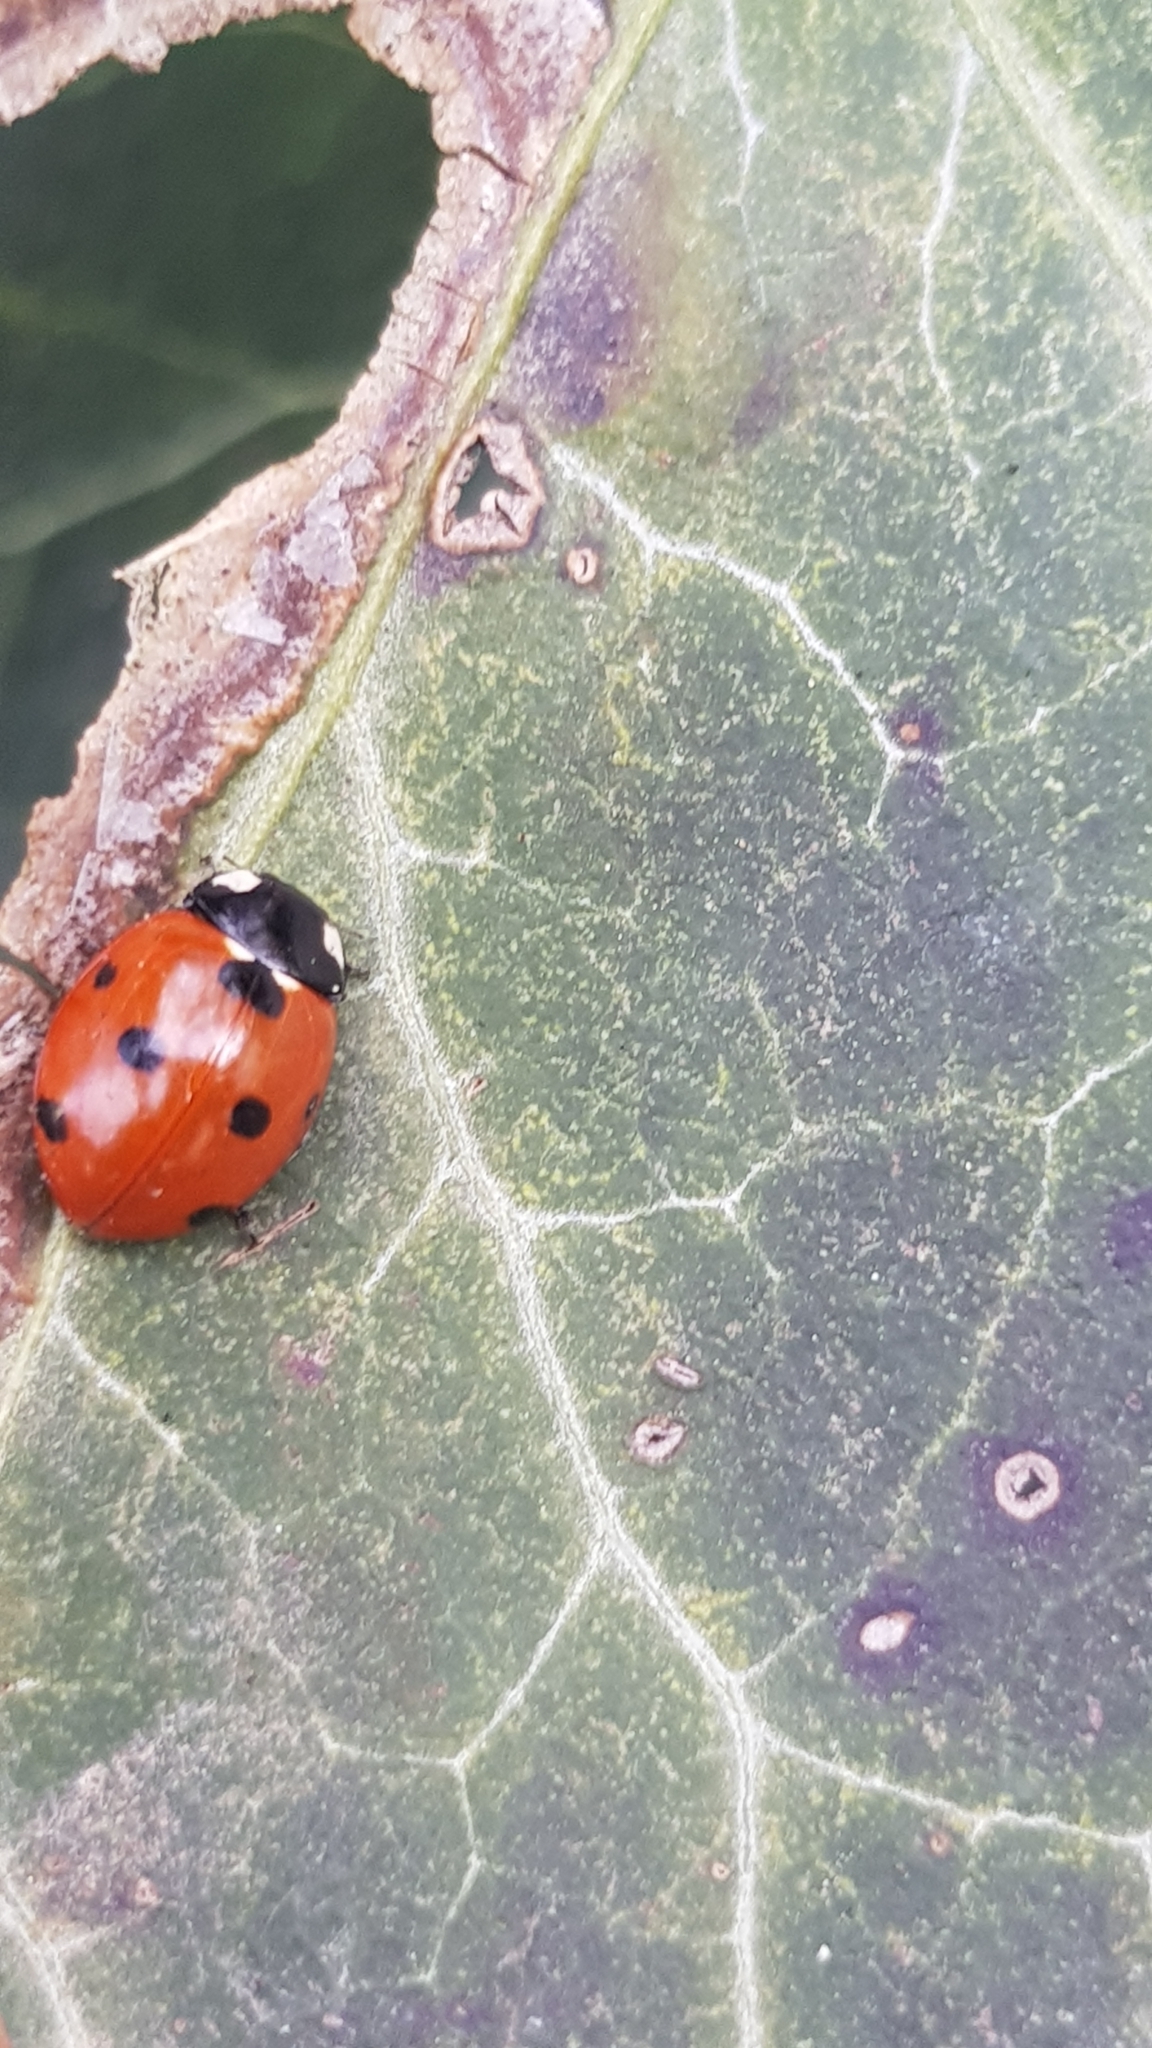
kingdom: Animalia
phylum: Arthropoda
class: Insecta
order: Coleoptera
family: Coccinellidae
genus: Coccinella
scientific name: Coccinella septempunctata
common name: Sevenspotted lady beetle
